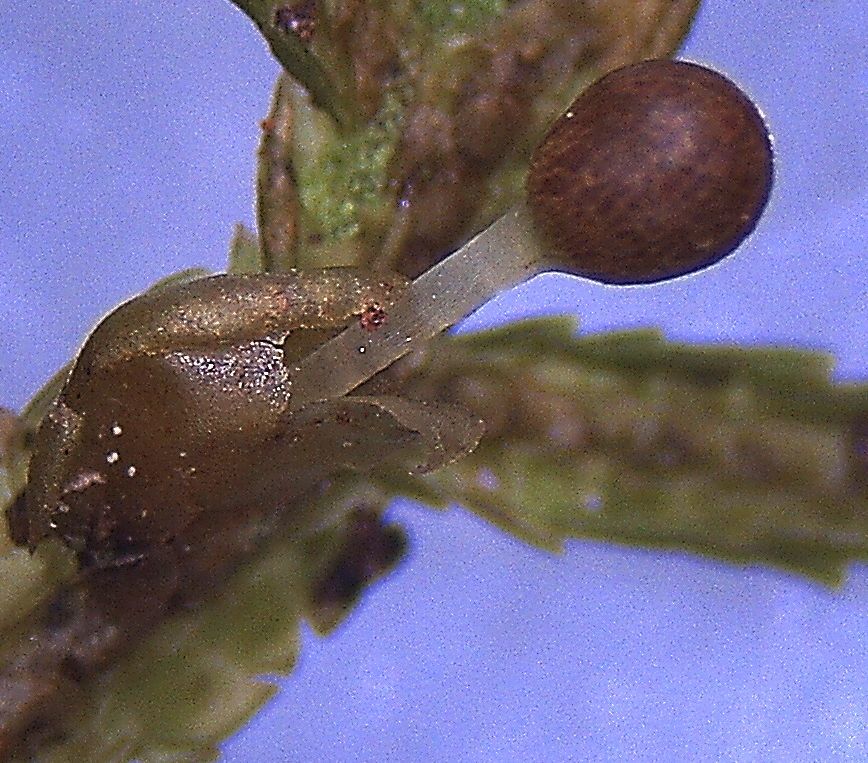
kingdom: Plantae
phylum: Marchantiophyta
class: Jungermanniopsida
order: Porellales
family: Porellaceae
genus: Porella
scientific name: Porella elegantula
